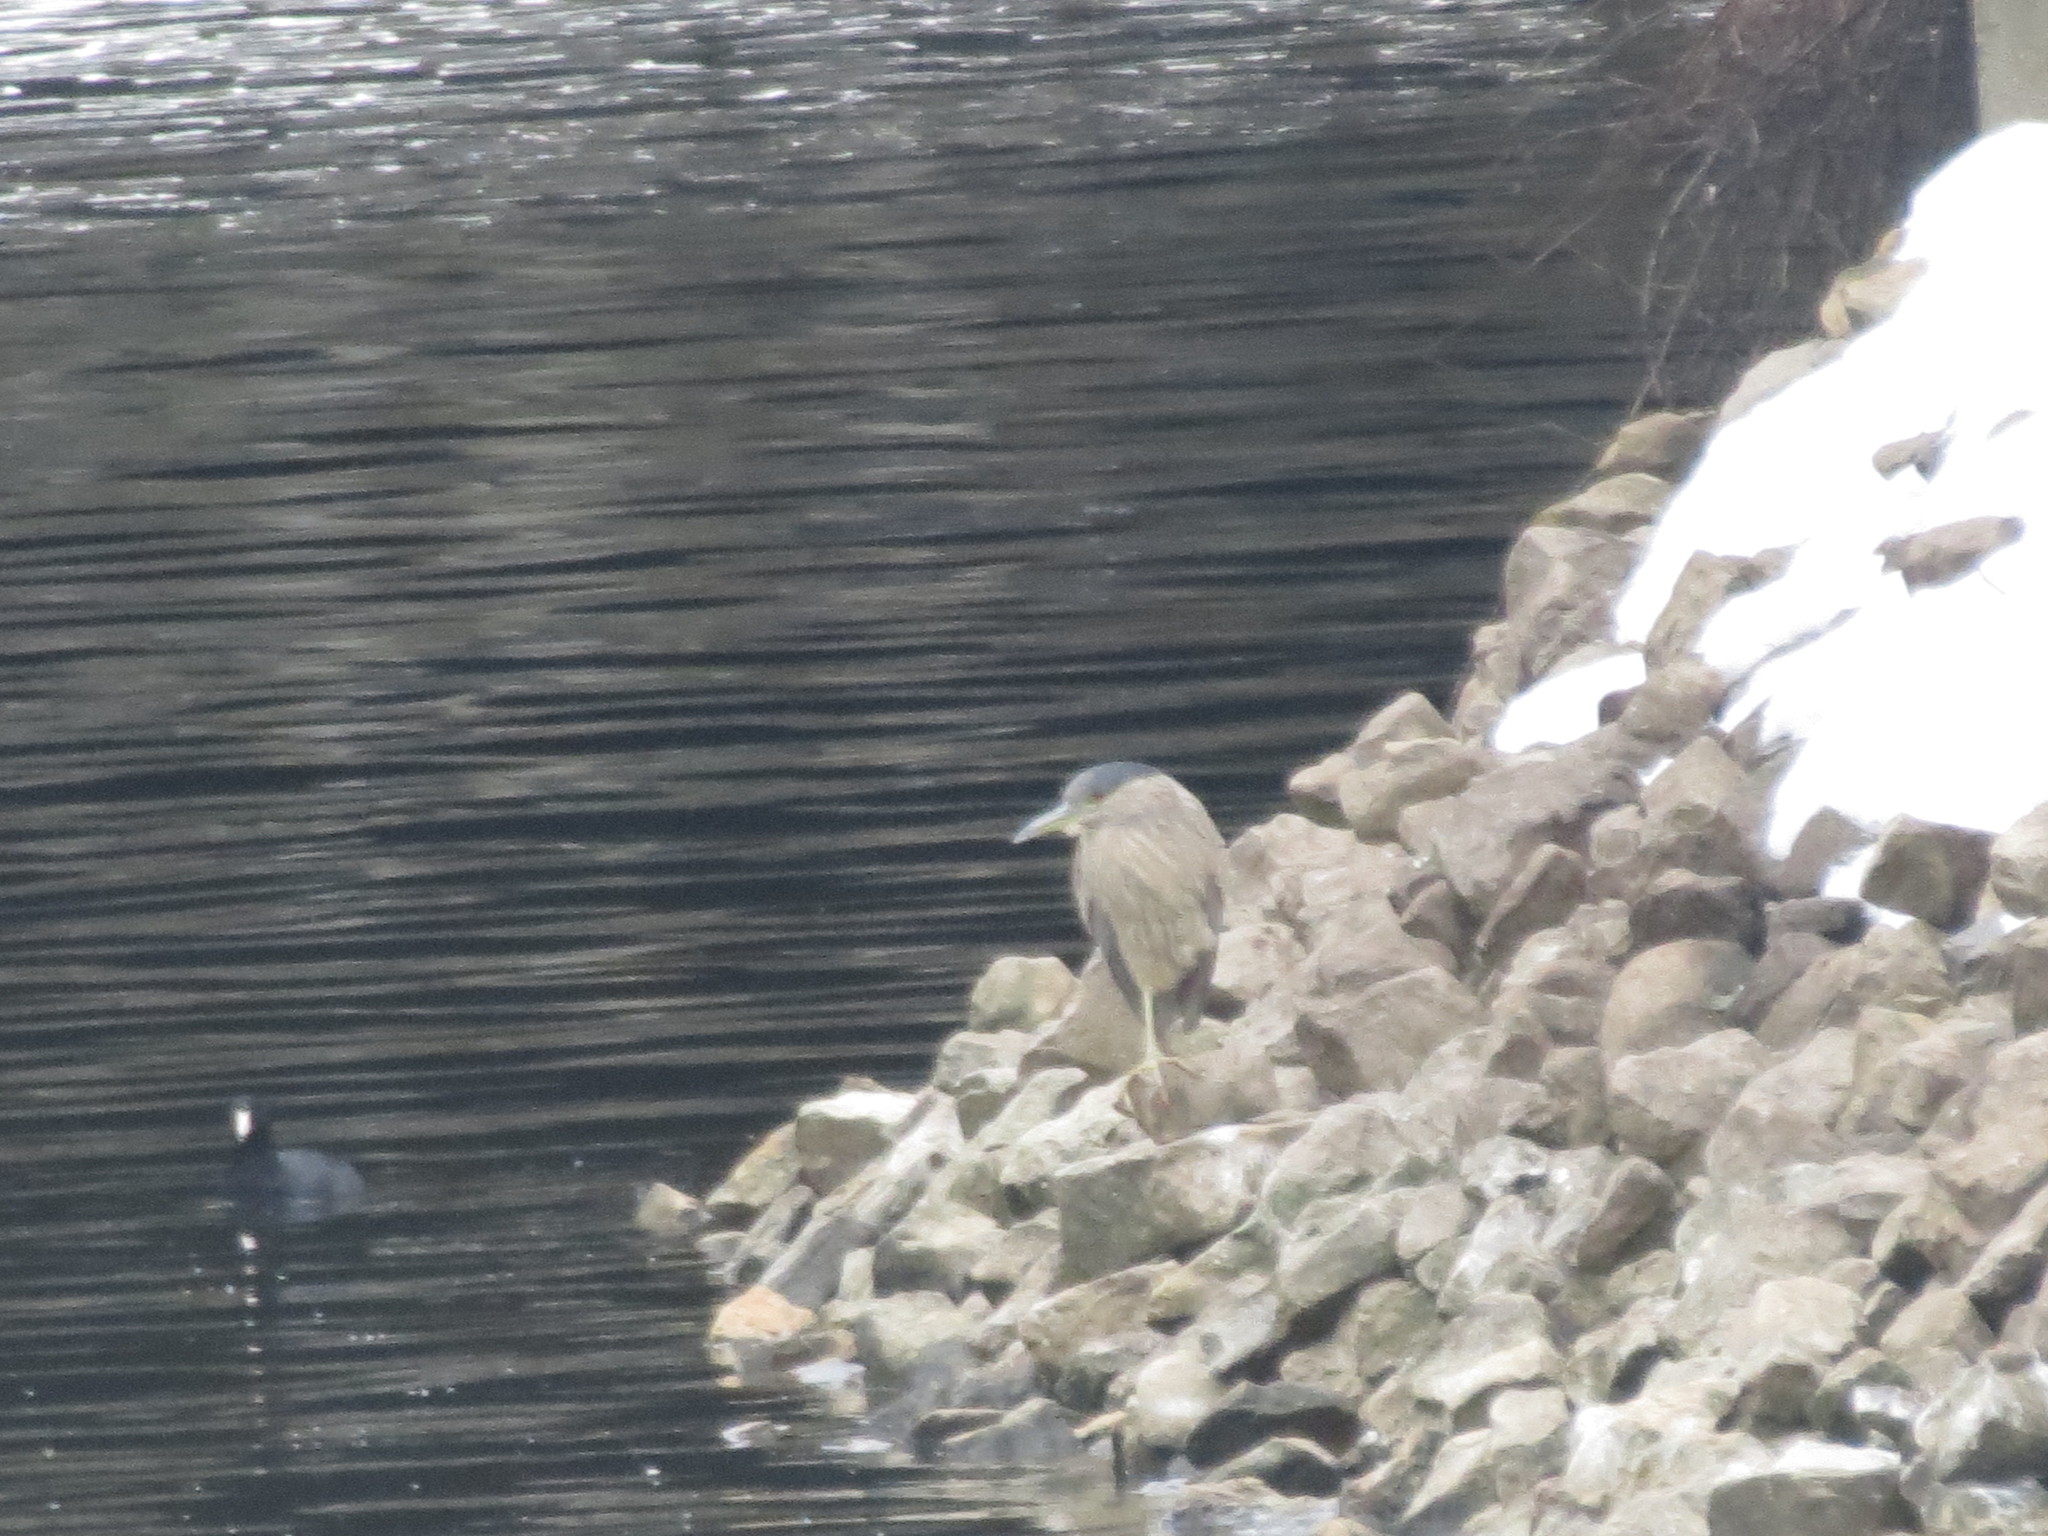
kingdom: Animalia
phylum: Chordata
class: Aves
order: Pelecaniformes
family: Ardeidae
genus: Nycticorax
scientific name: Nycticorax nycticorax
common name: Black-crowned night heron
